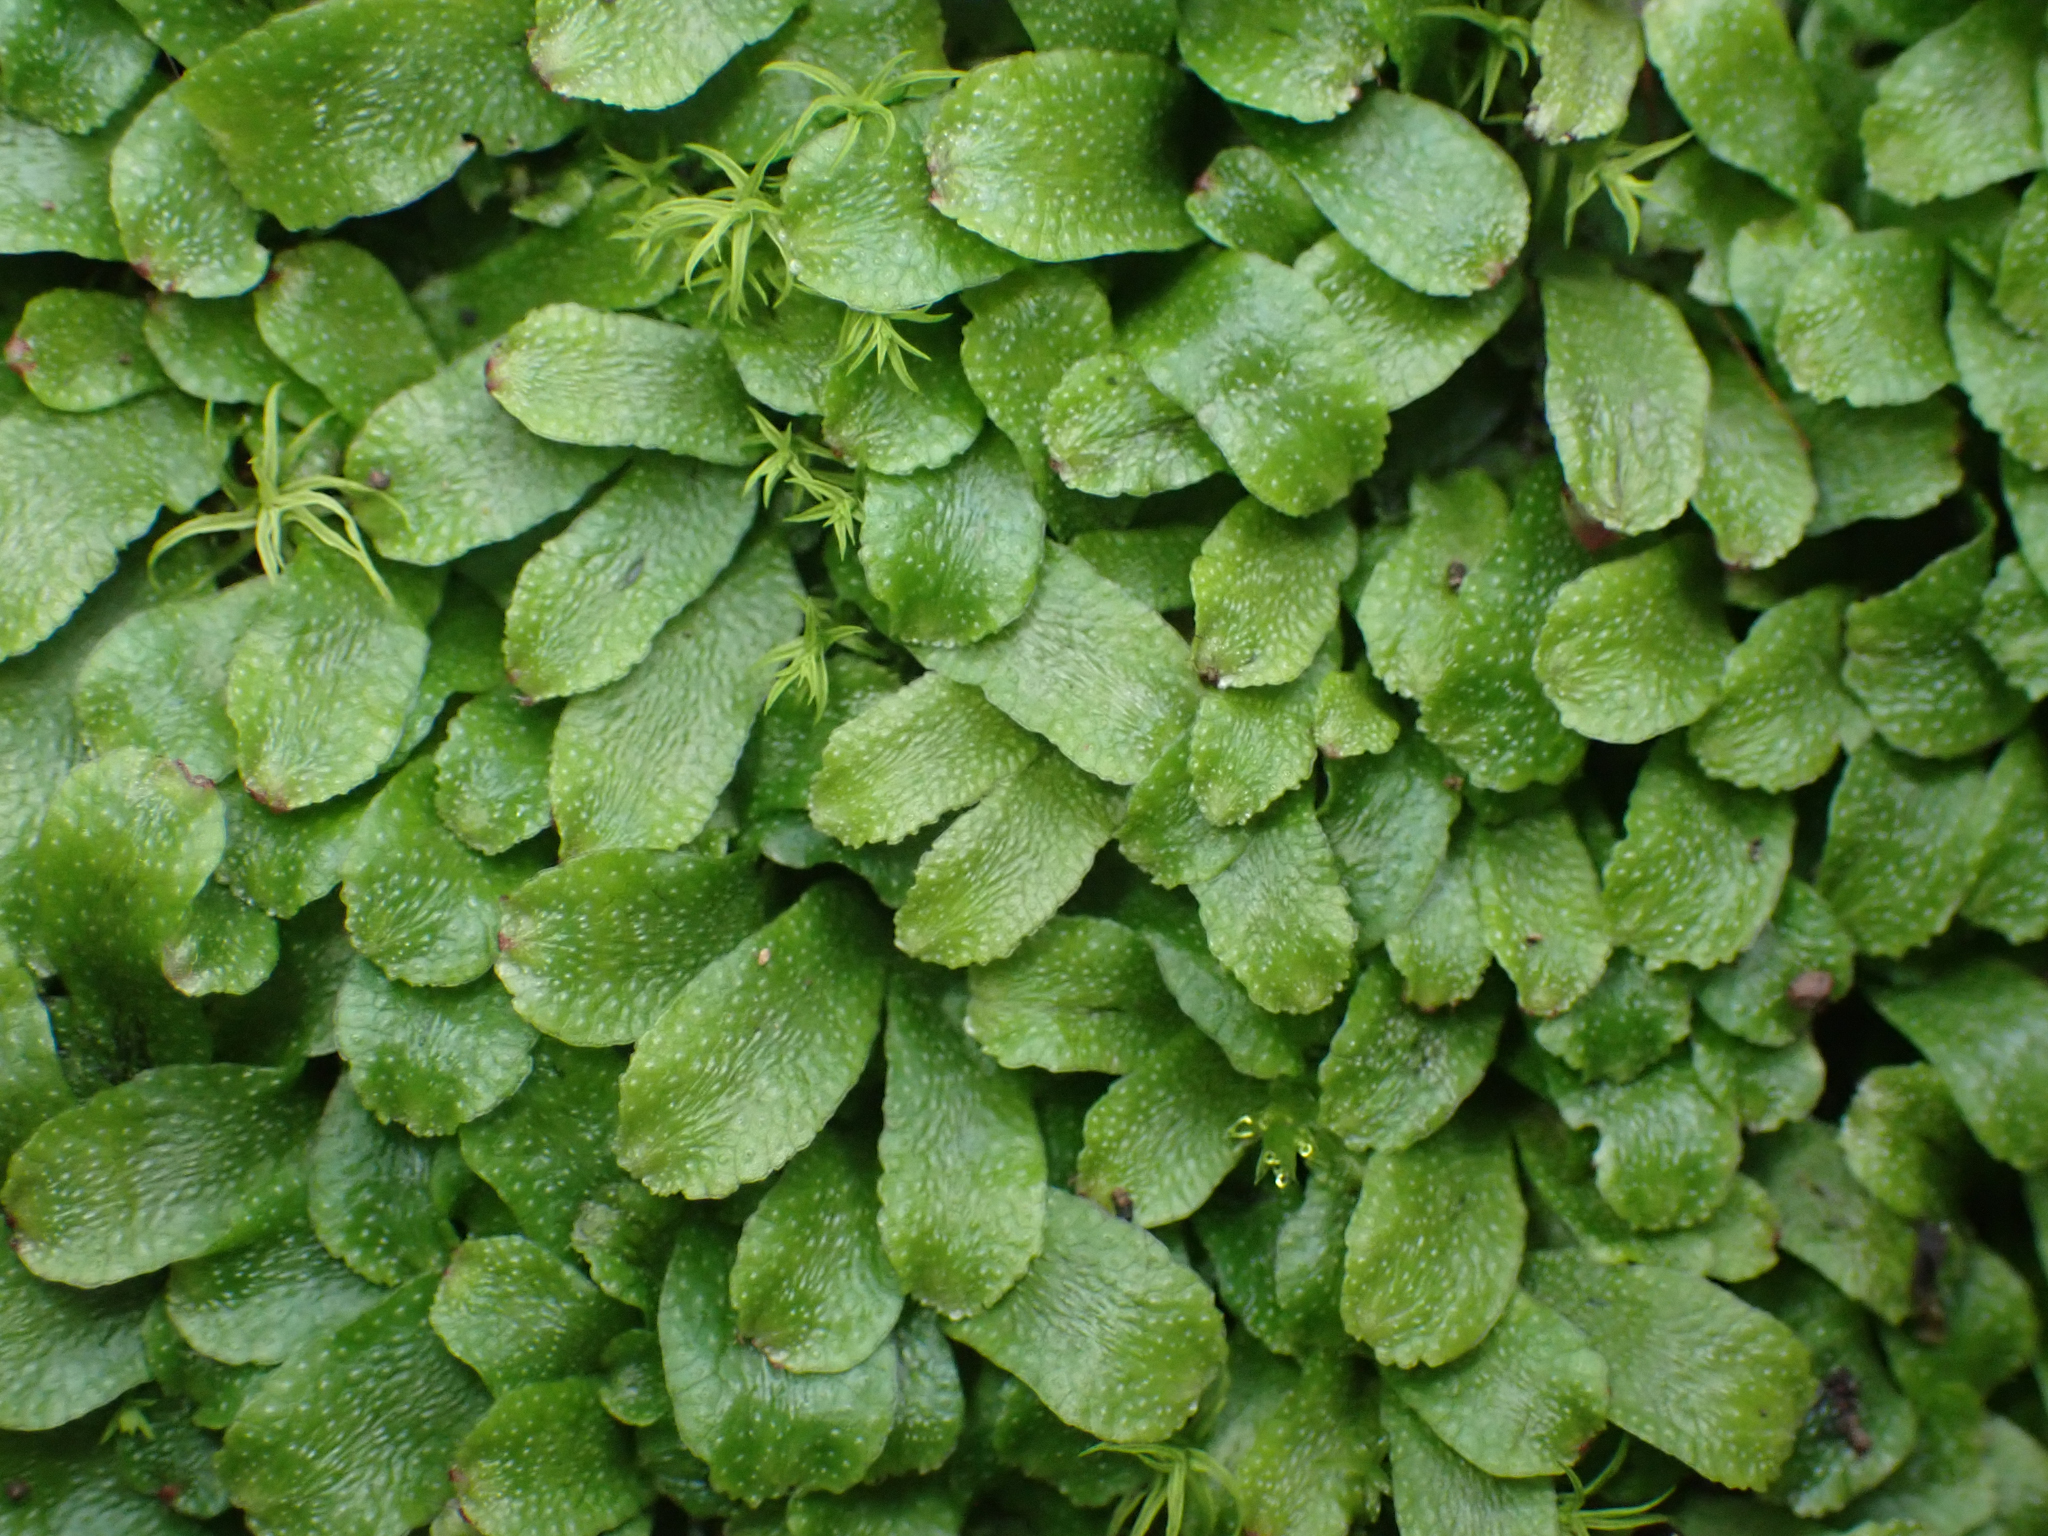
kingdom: Plantae
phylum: Marchantiophyta
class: Marchantiopsida
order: Marchantiales
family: Targioniaceae
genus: Targionia
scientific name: Targionia hypophylla
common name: Orobus-seed liverwort
